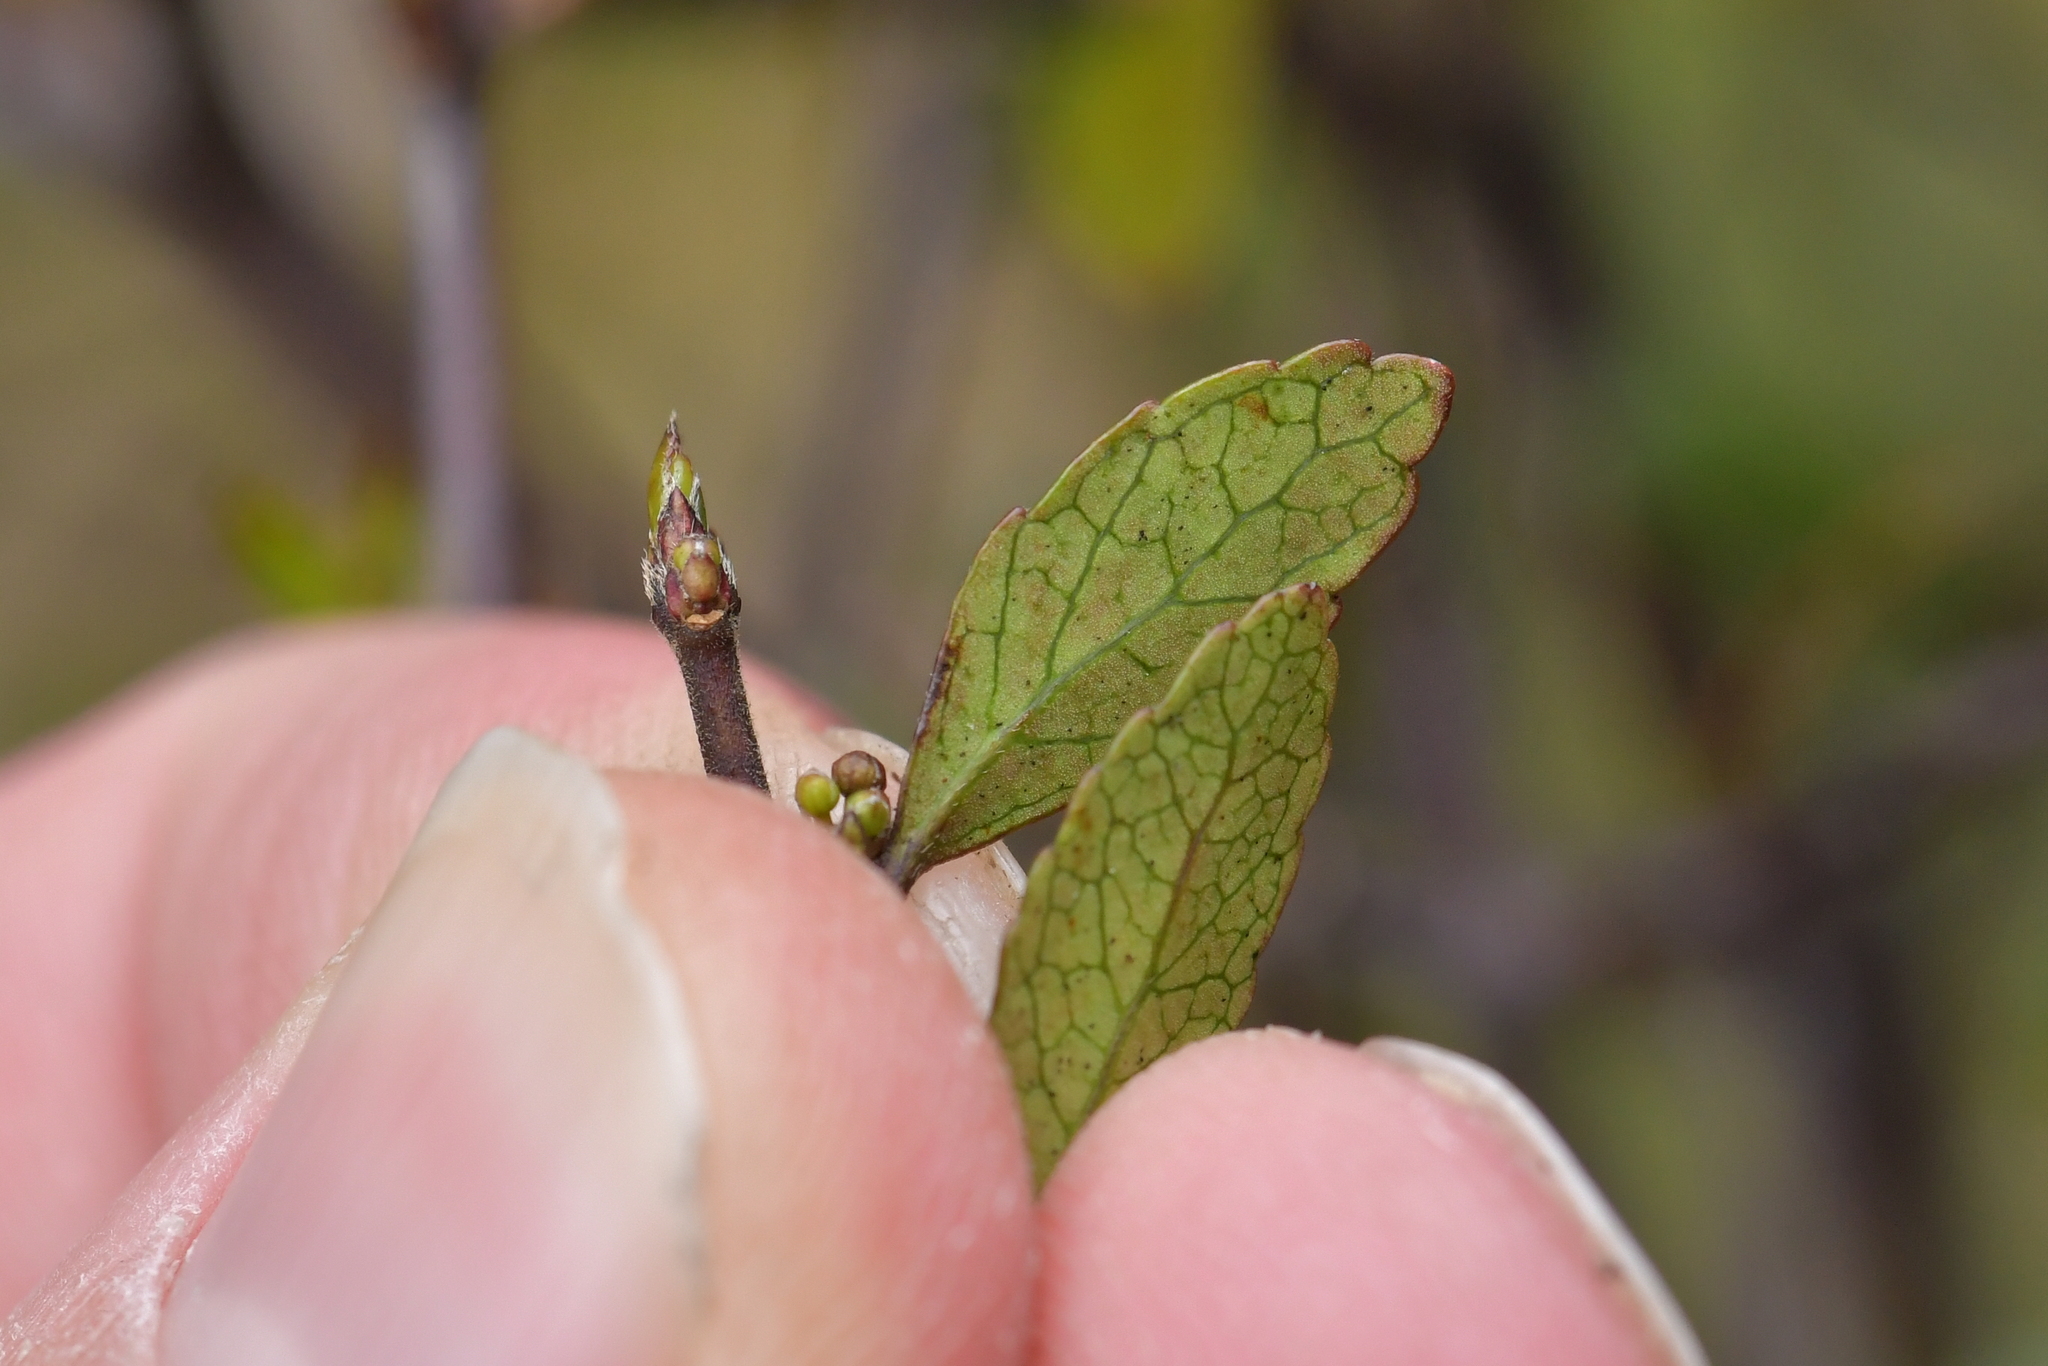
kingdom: Plantae
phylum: Tracheophyta
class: Magnoliopsida
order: Oxalidales
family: Elaeocarpaceae
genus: Aristotelia
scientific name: Aristotelia fruticosa
